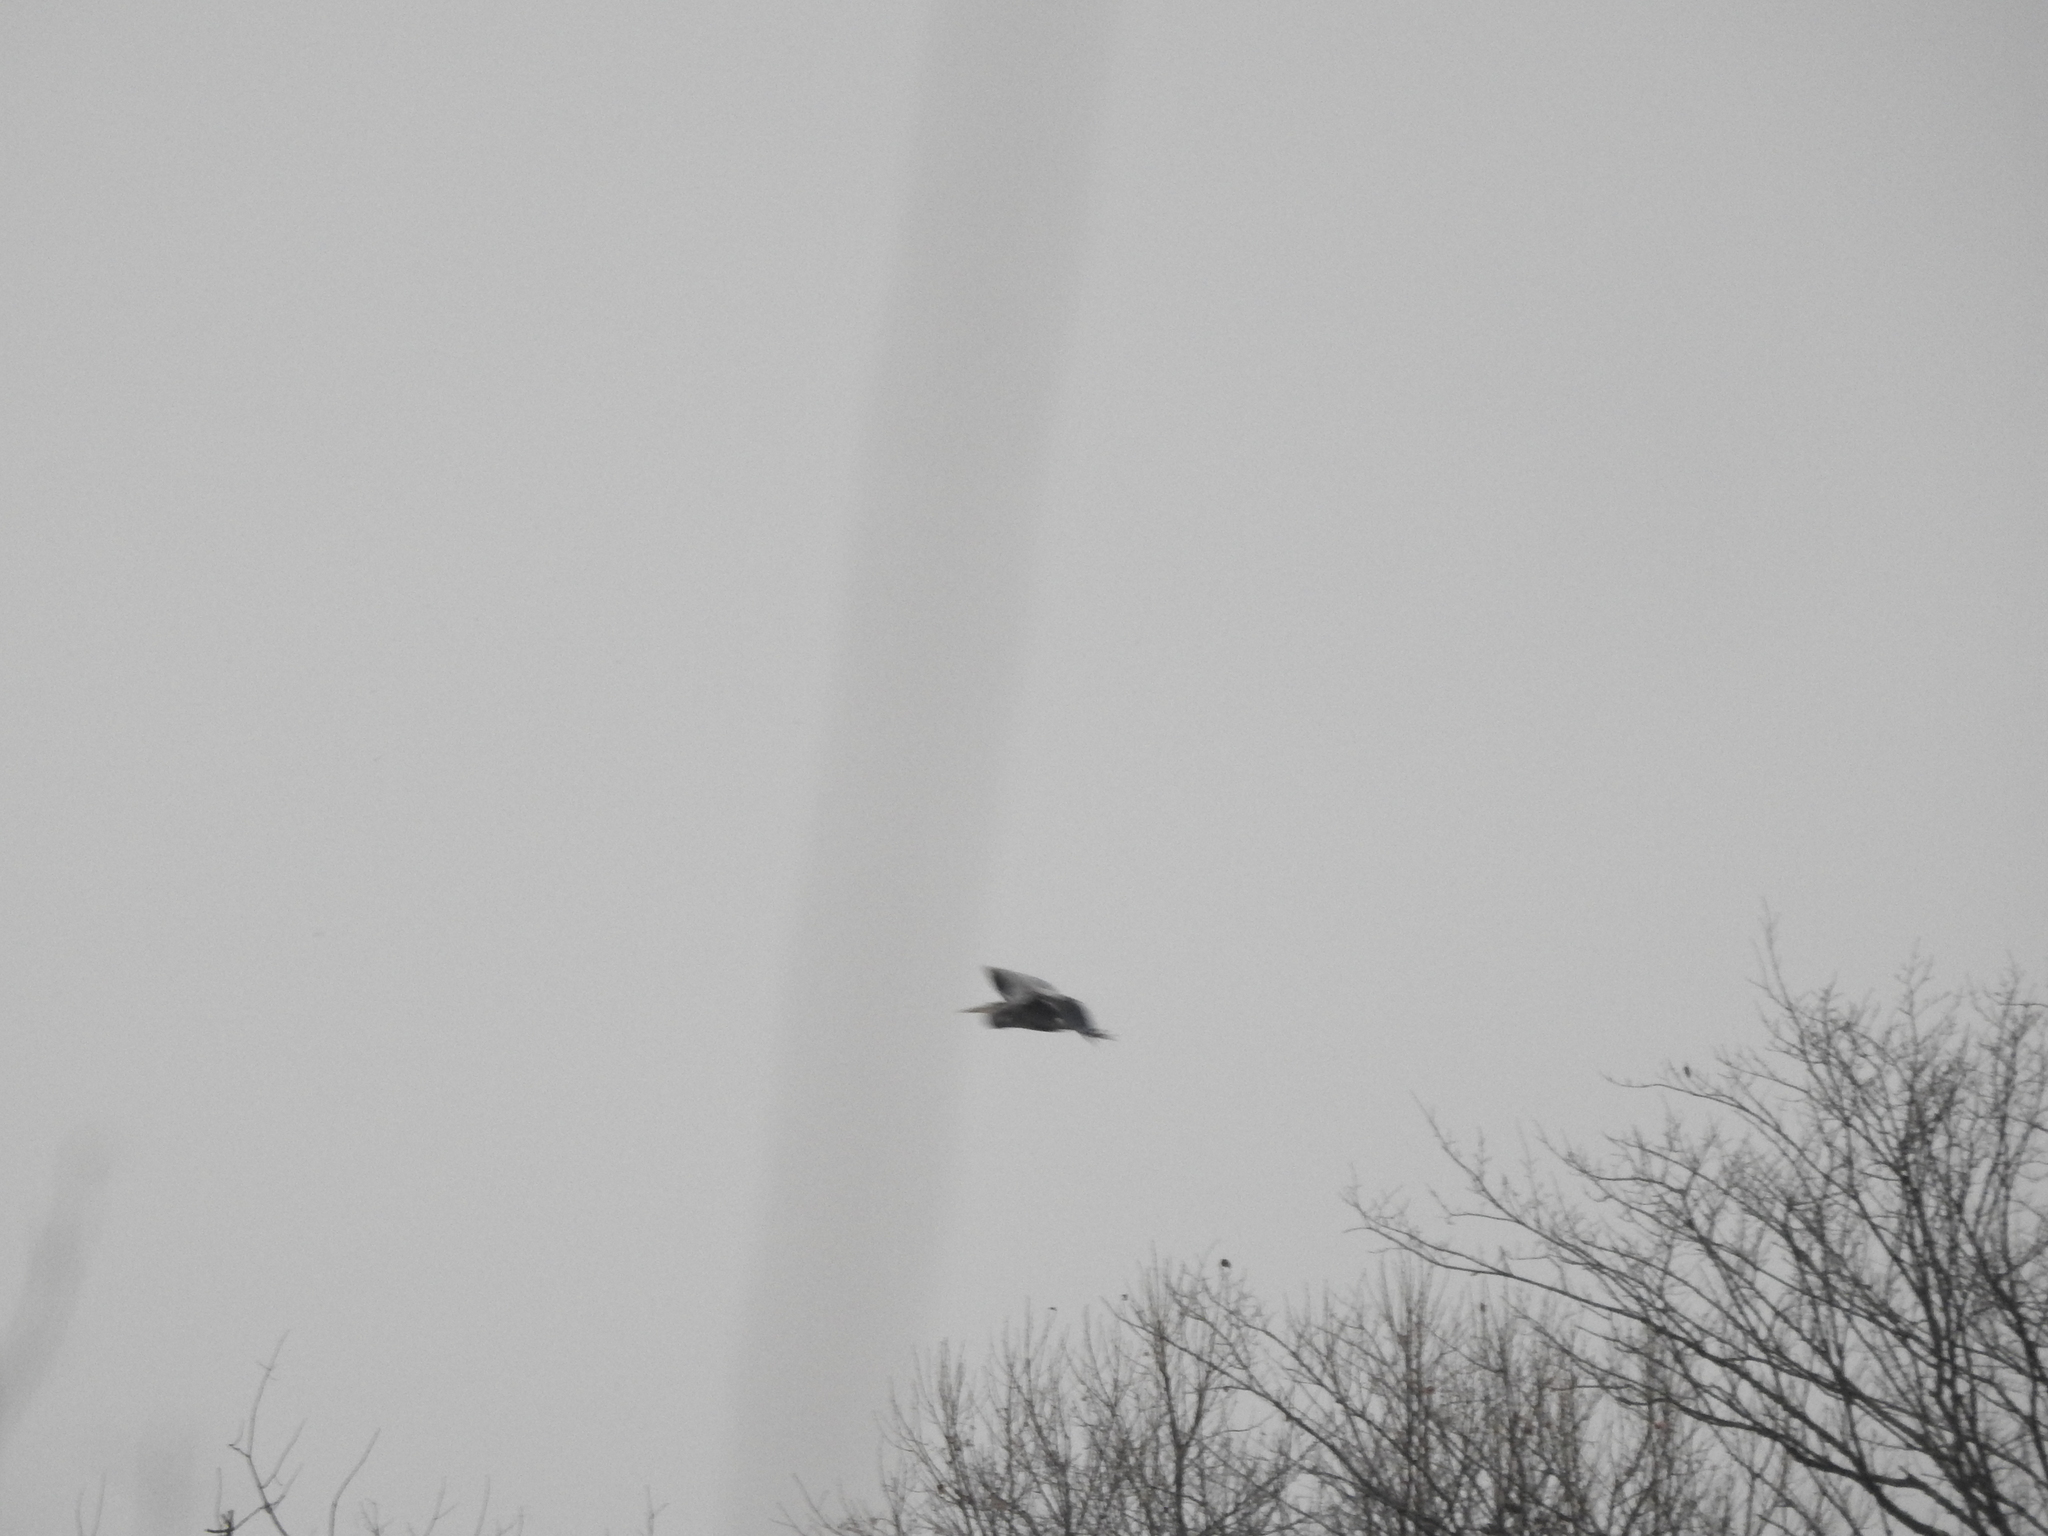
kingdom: Animalia
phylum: Chordata
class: Aves
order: Pelecaniformes
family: Ardeidae
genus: Ardea
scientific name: Ardea herodias
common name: Great blue heron
